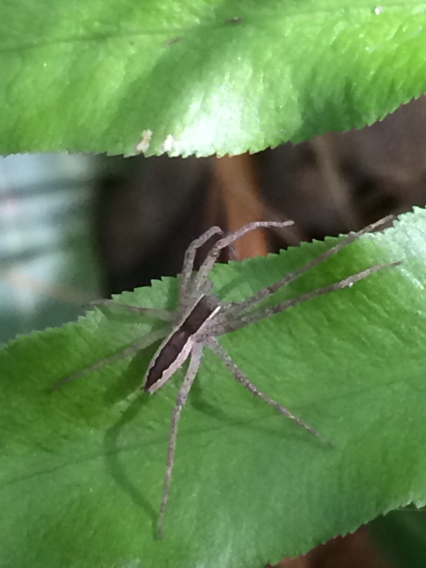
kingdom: Animalia
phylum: Arthropoda
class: Arachnida
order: Araneae
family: Pisauridae
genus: Pisaurina
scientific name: Pisaurina mira
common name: American nursery web spider
